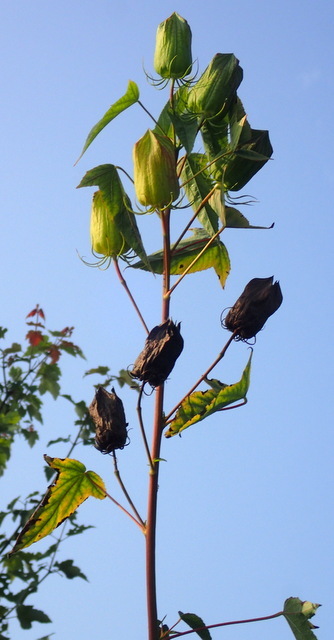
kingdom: Plantae
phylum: Tracheophyta
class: Magnoliopsida
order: Malvales
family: Malvaceae
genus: Hibiscus
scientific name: Hibiscus laevis
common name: Scarlet rose-mallow
